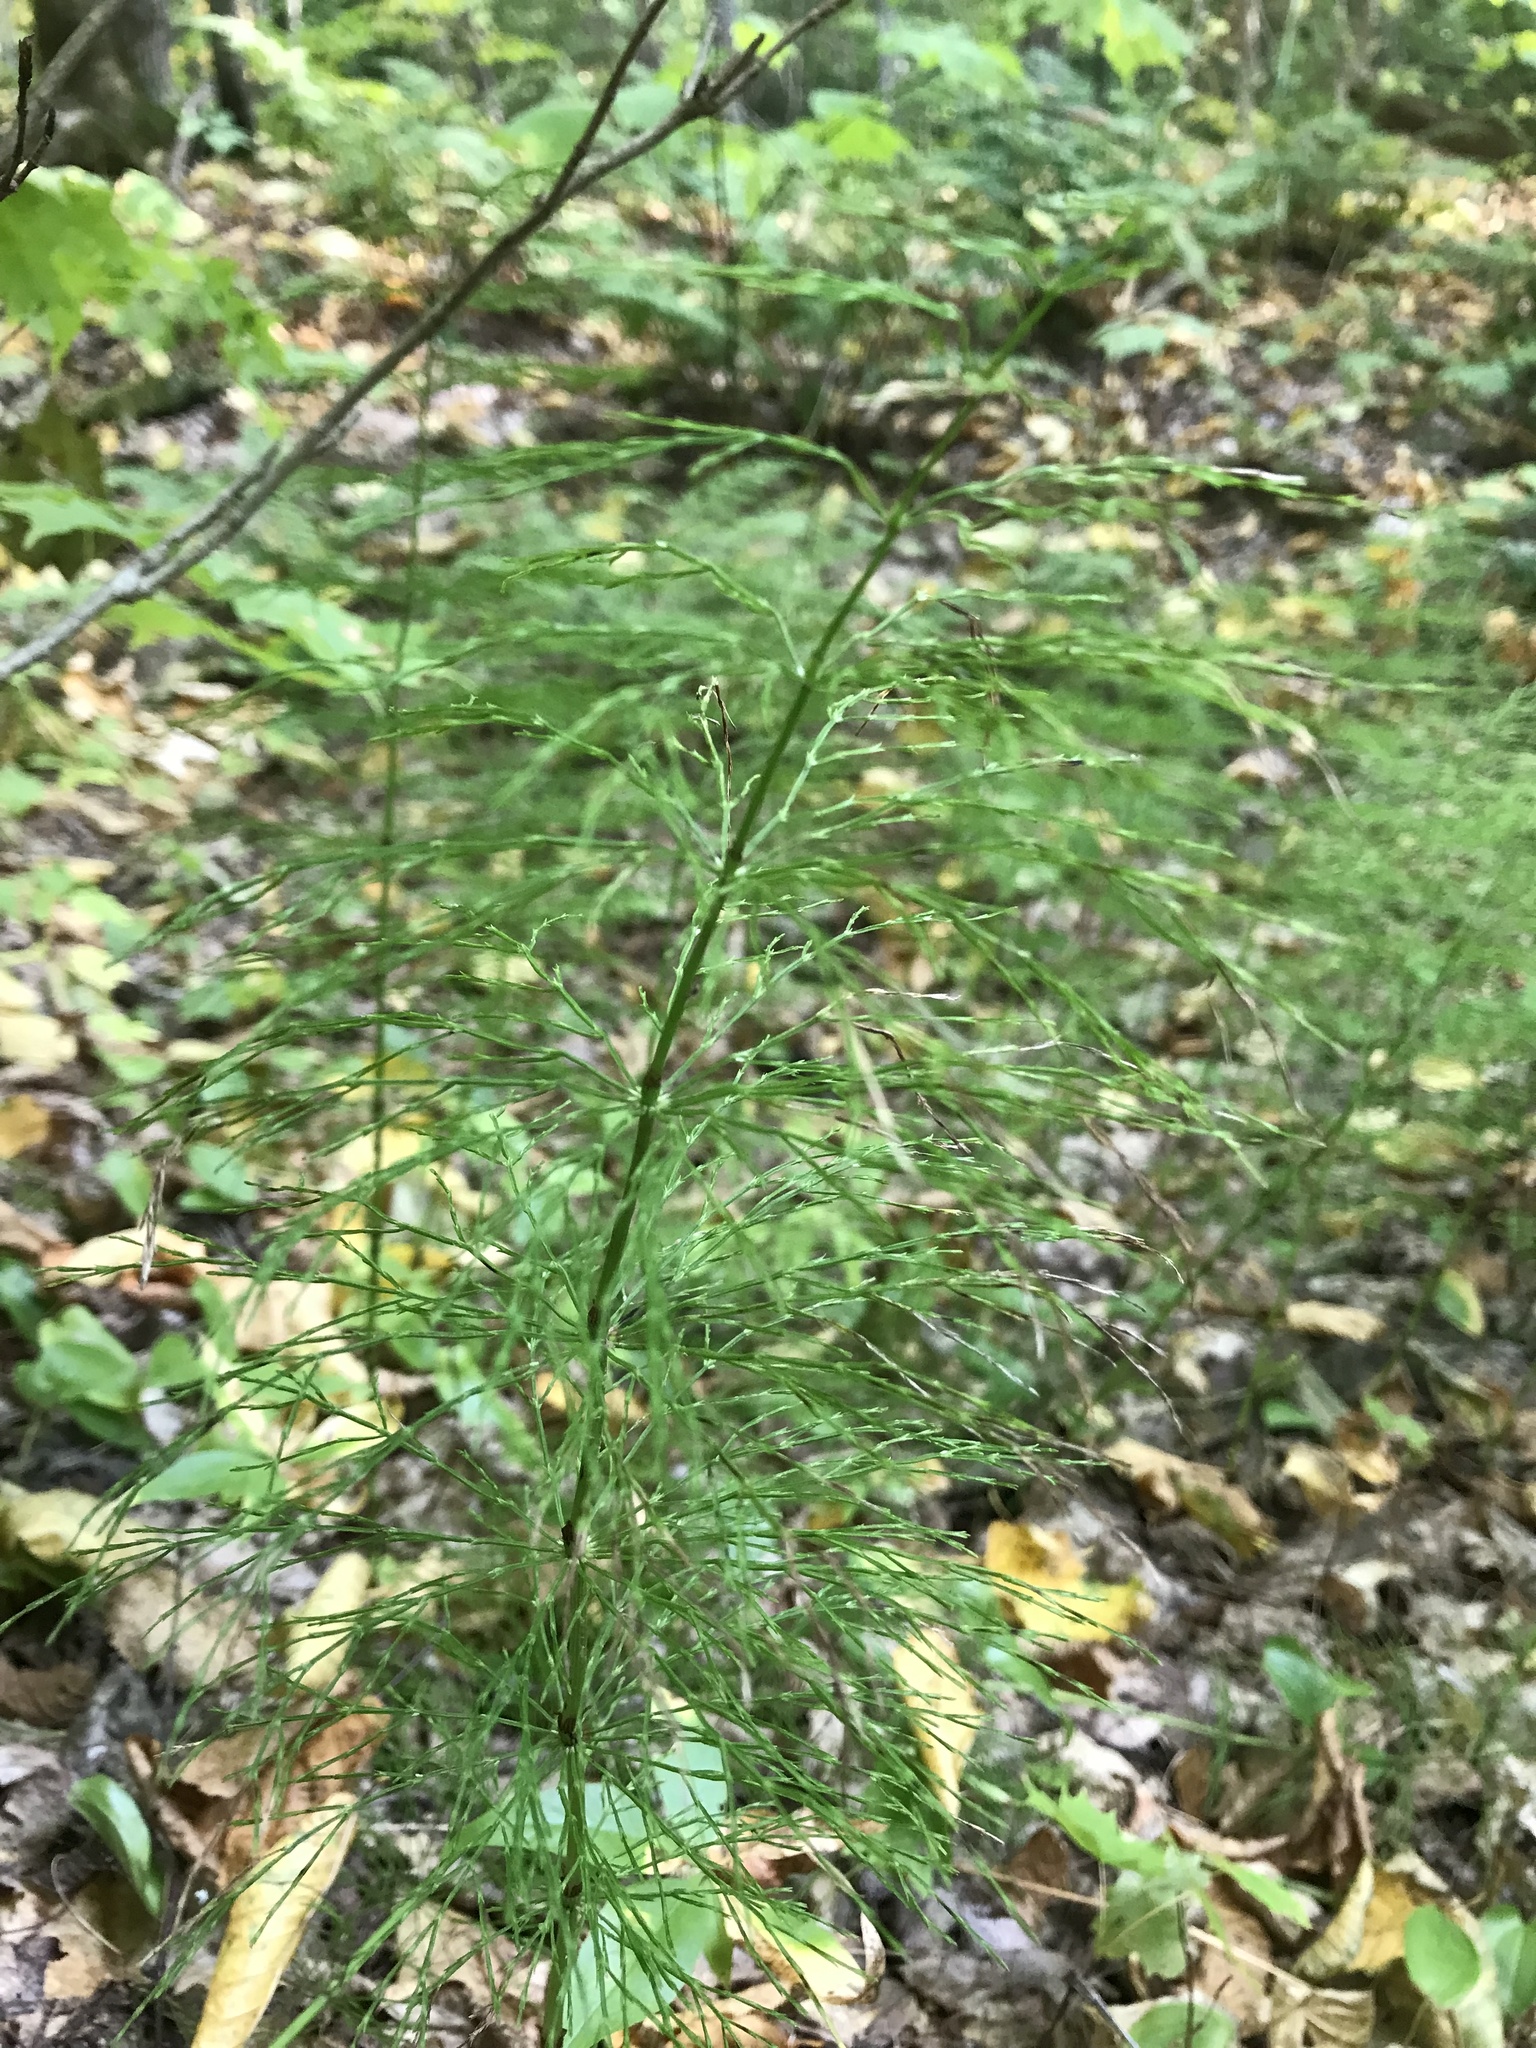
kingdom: Plantae
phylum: Tracheophyta
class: Polypodiopsida
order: Equisetales
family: Equisetaceae
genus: Equisetum
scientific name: Equisetum sylvaticum
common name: Wood horsetail
